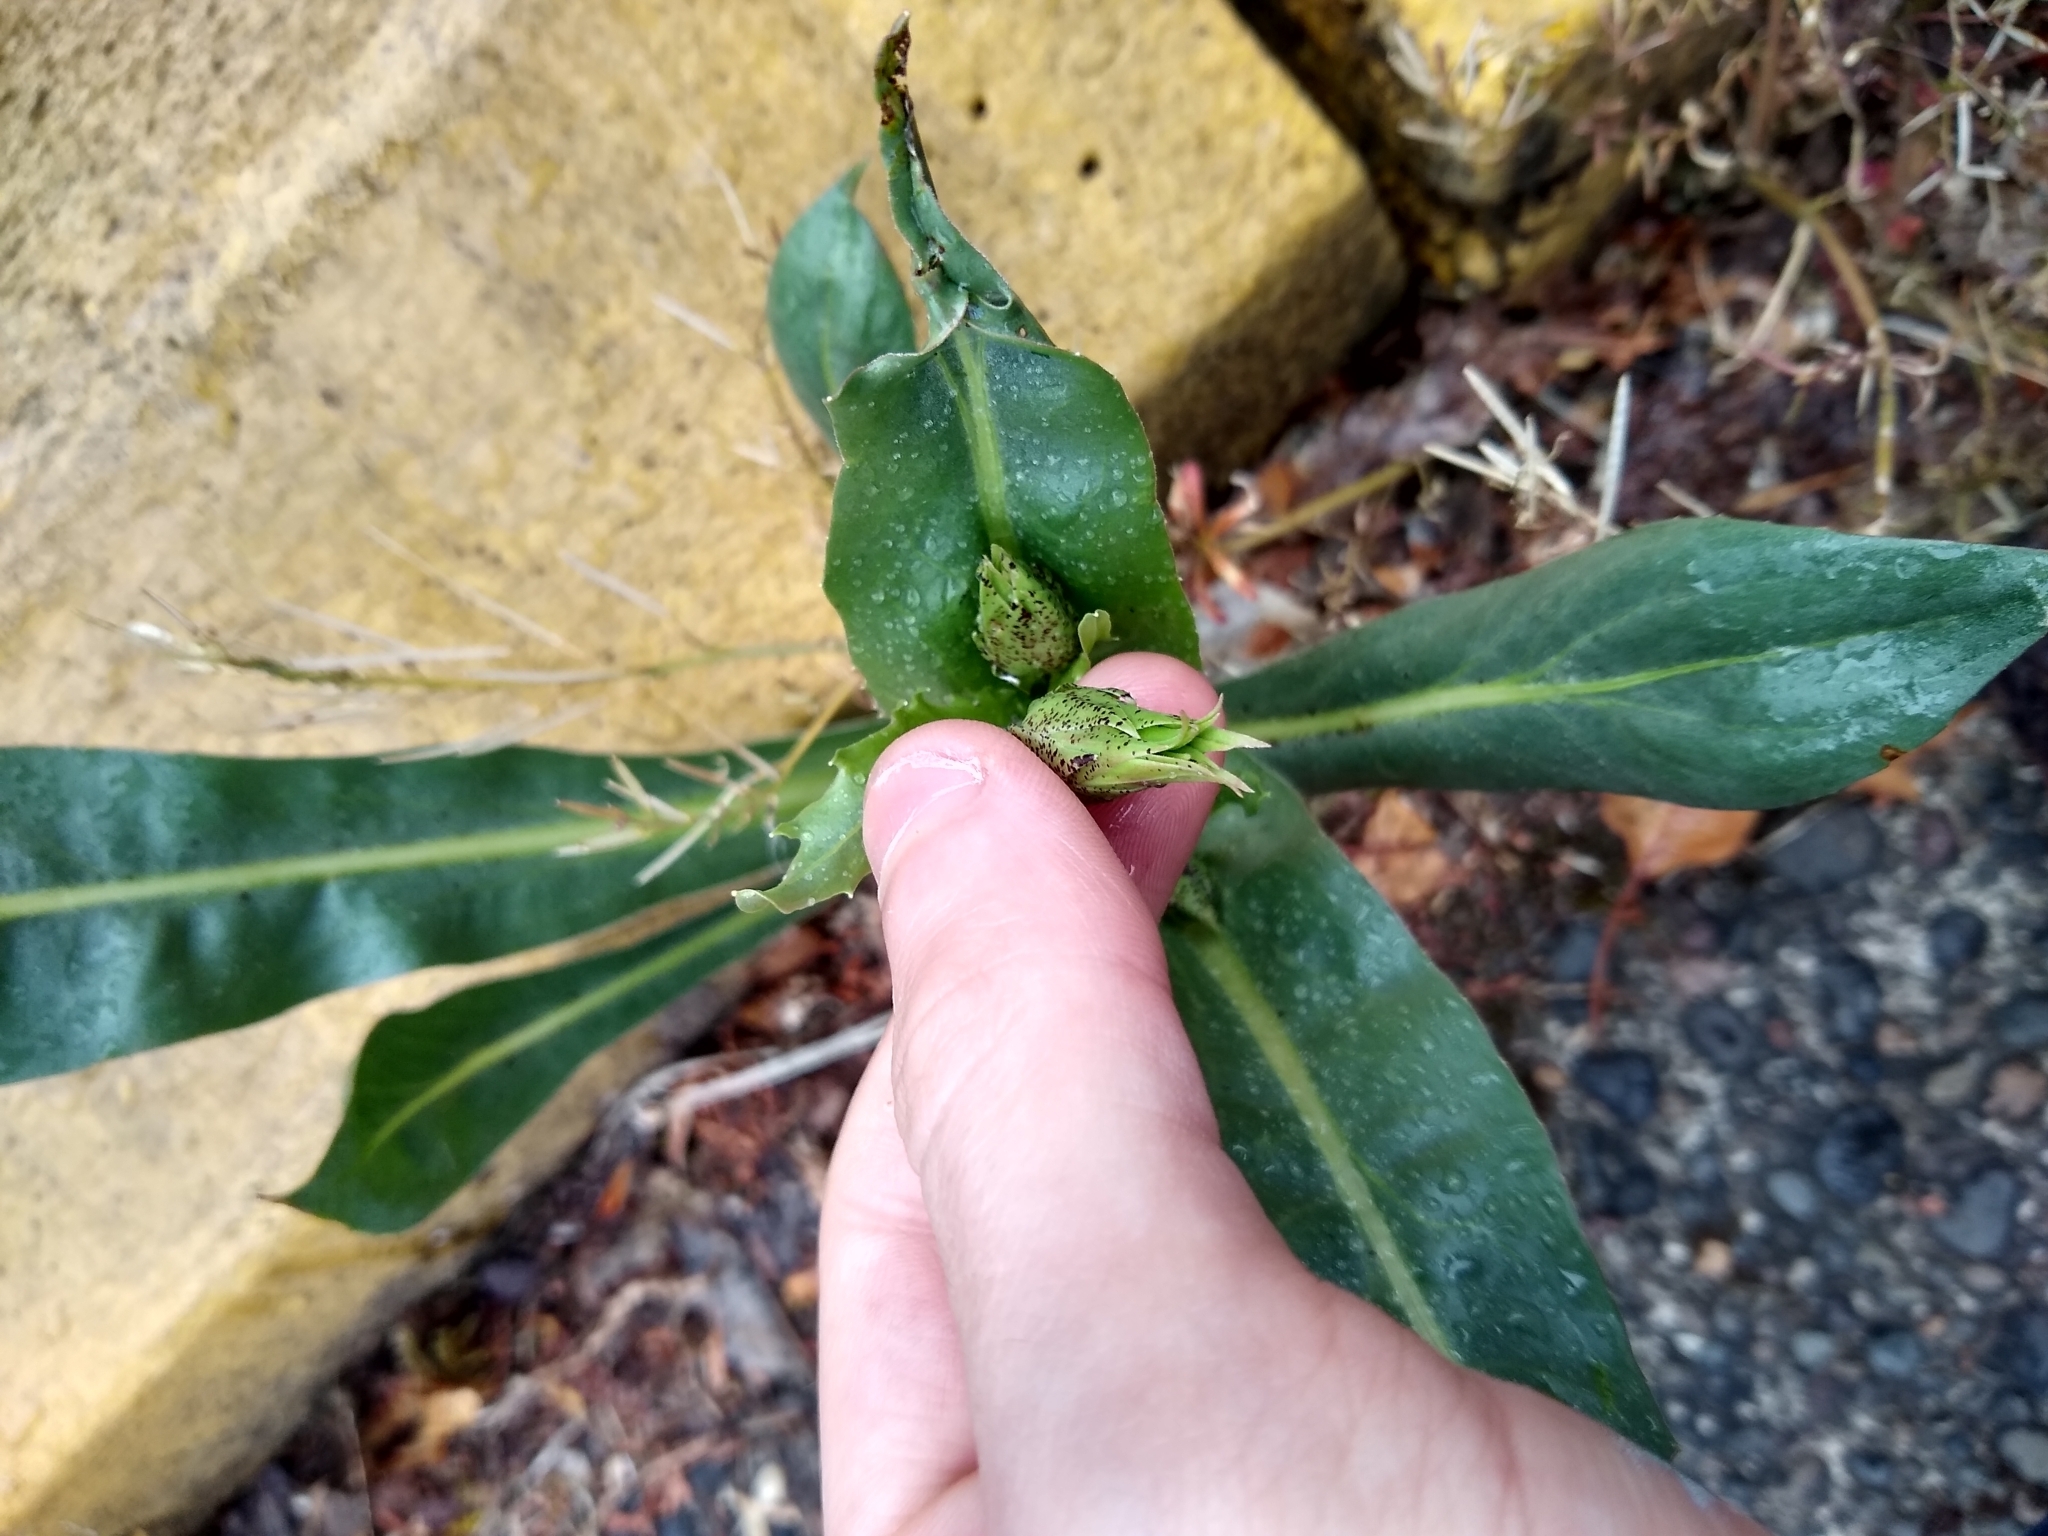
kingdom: Plantae
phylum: Tracheophyta
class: Magnoliopsida
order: Asterales
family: Asteraceae
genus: Microseris
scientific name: Microseris laciniata
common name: Cut-leaf microseris
